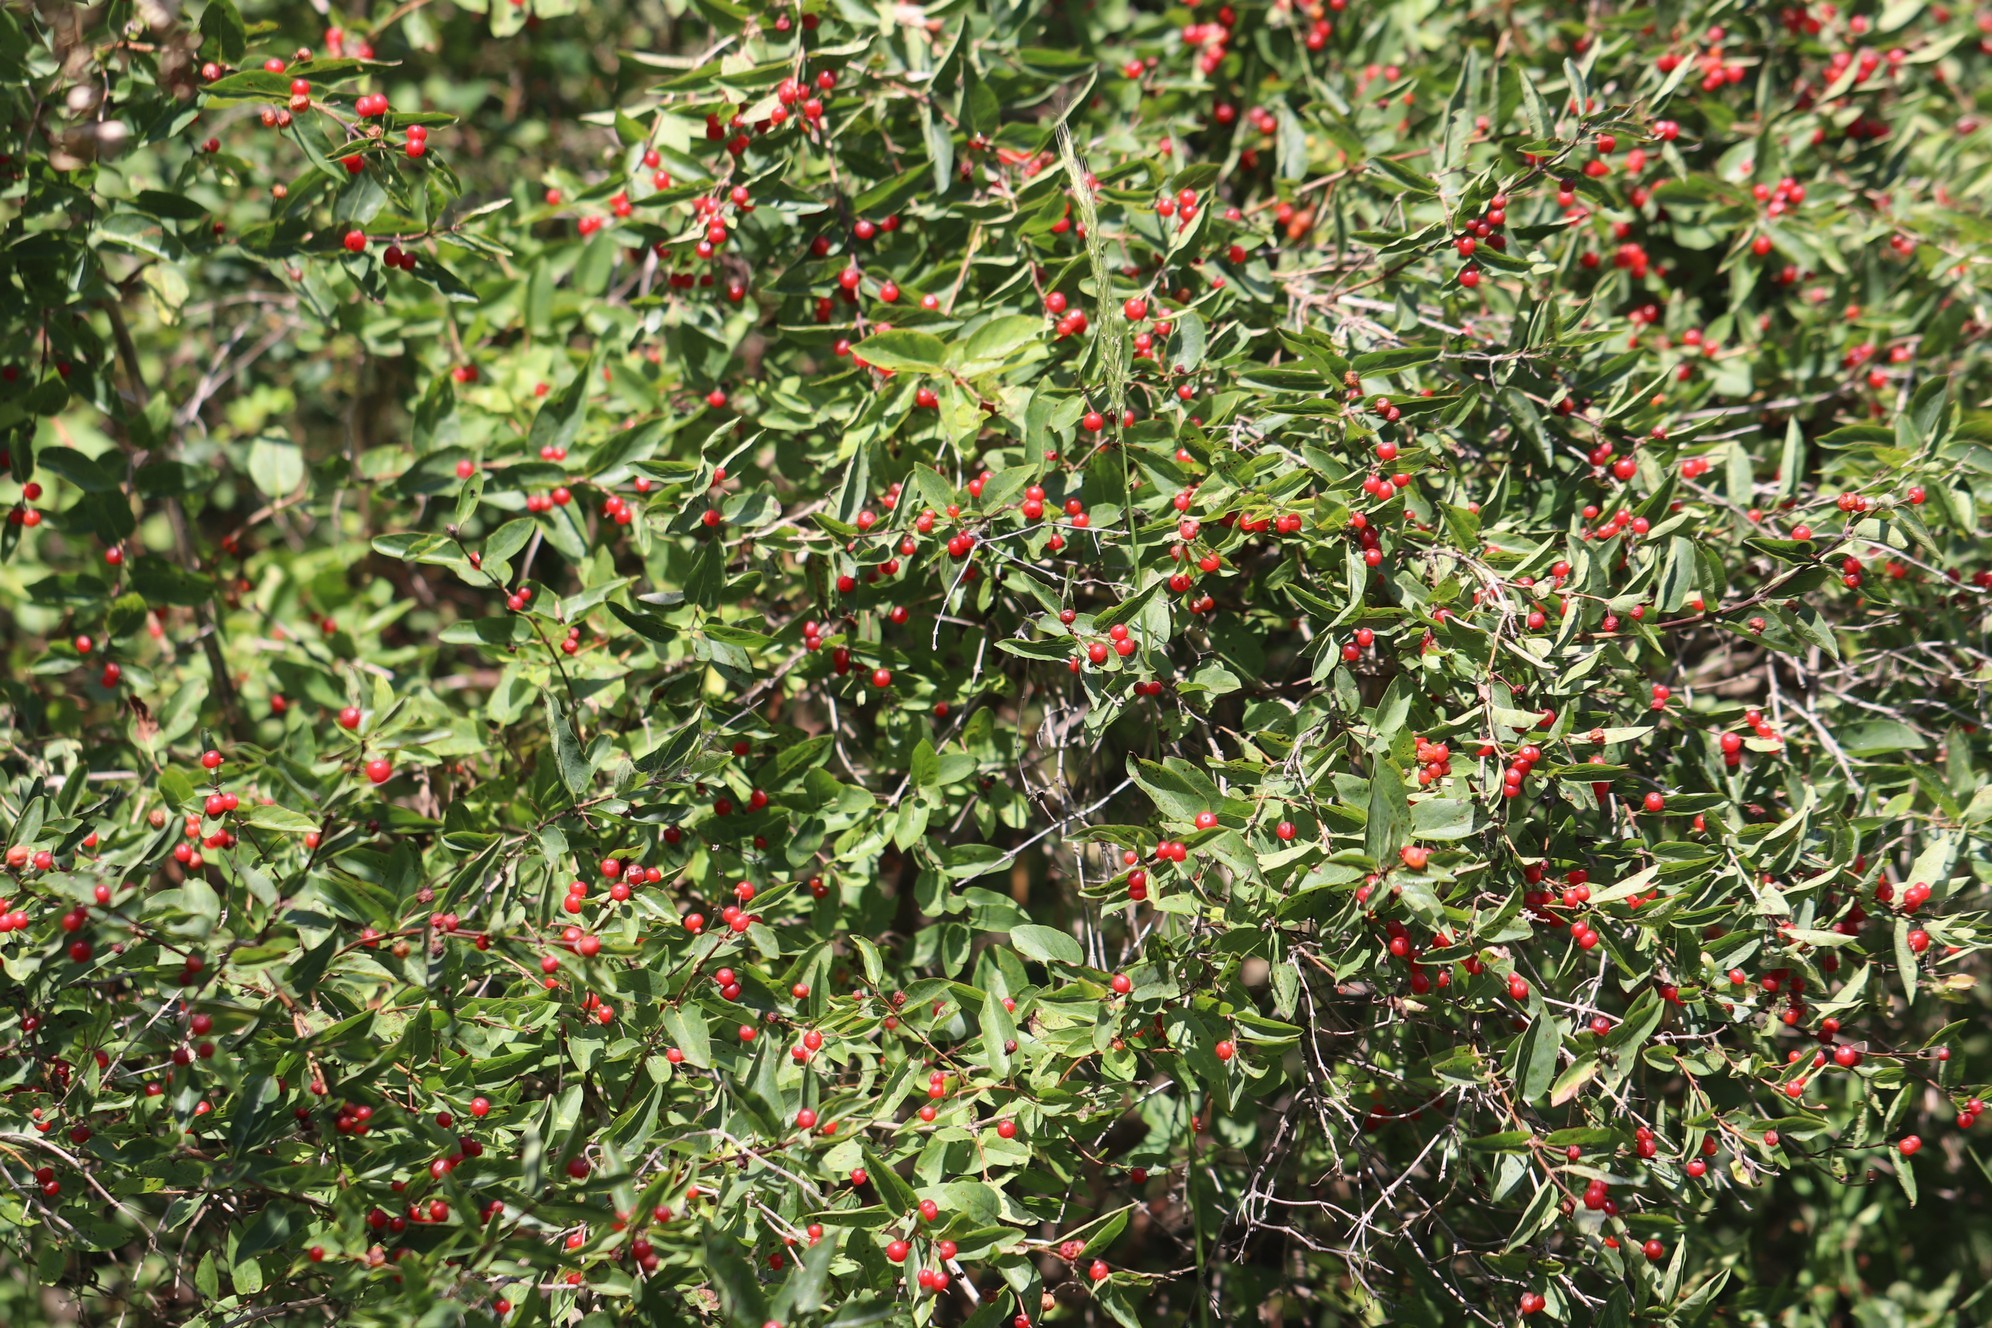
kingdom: Plantae
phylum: Tracheophyta
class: Magnoliopsida
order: Dipsacales
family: Caprifoliaceae
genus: Lonicera
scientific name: Lonicera tatarica
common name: Tatarian honeysuckle
